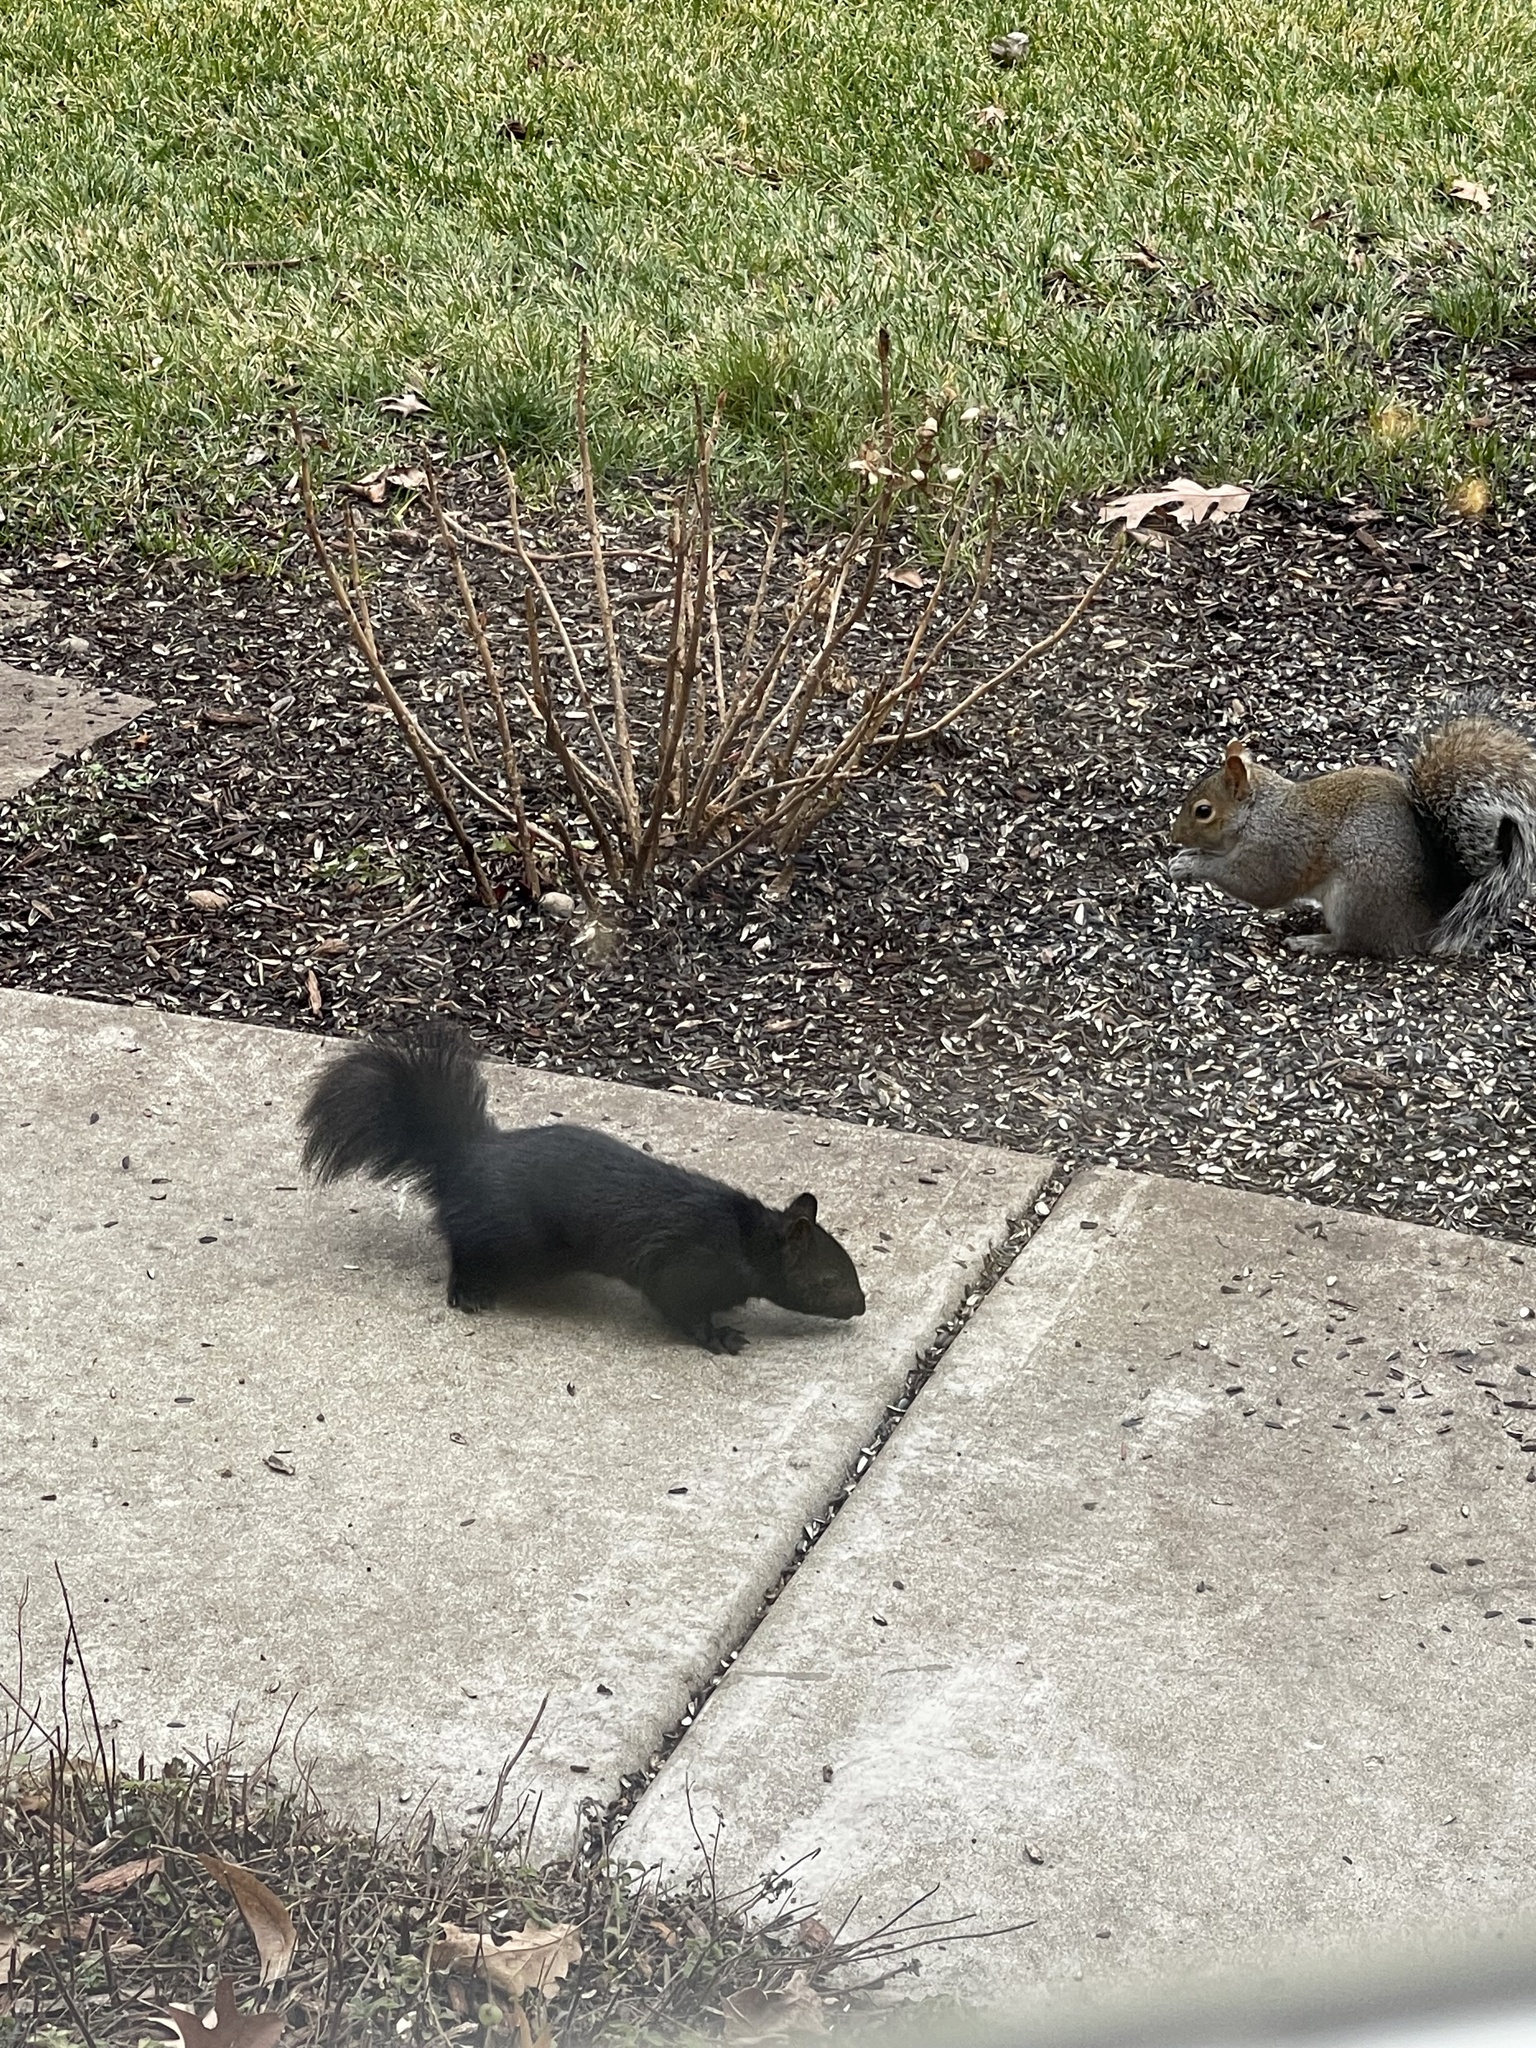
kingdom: Animalia
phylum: Chordata
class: Mammalia
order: Rodentia
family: Sciuridae
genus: Sciurus
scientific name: Sciurus carolinensis
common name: Eastern gray squirrel
